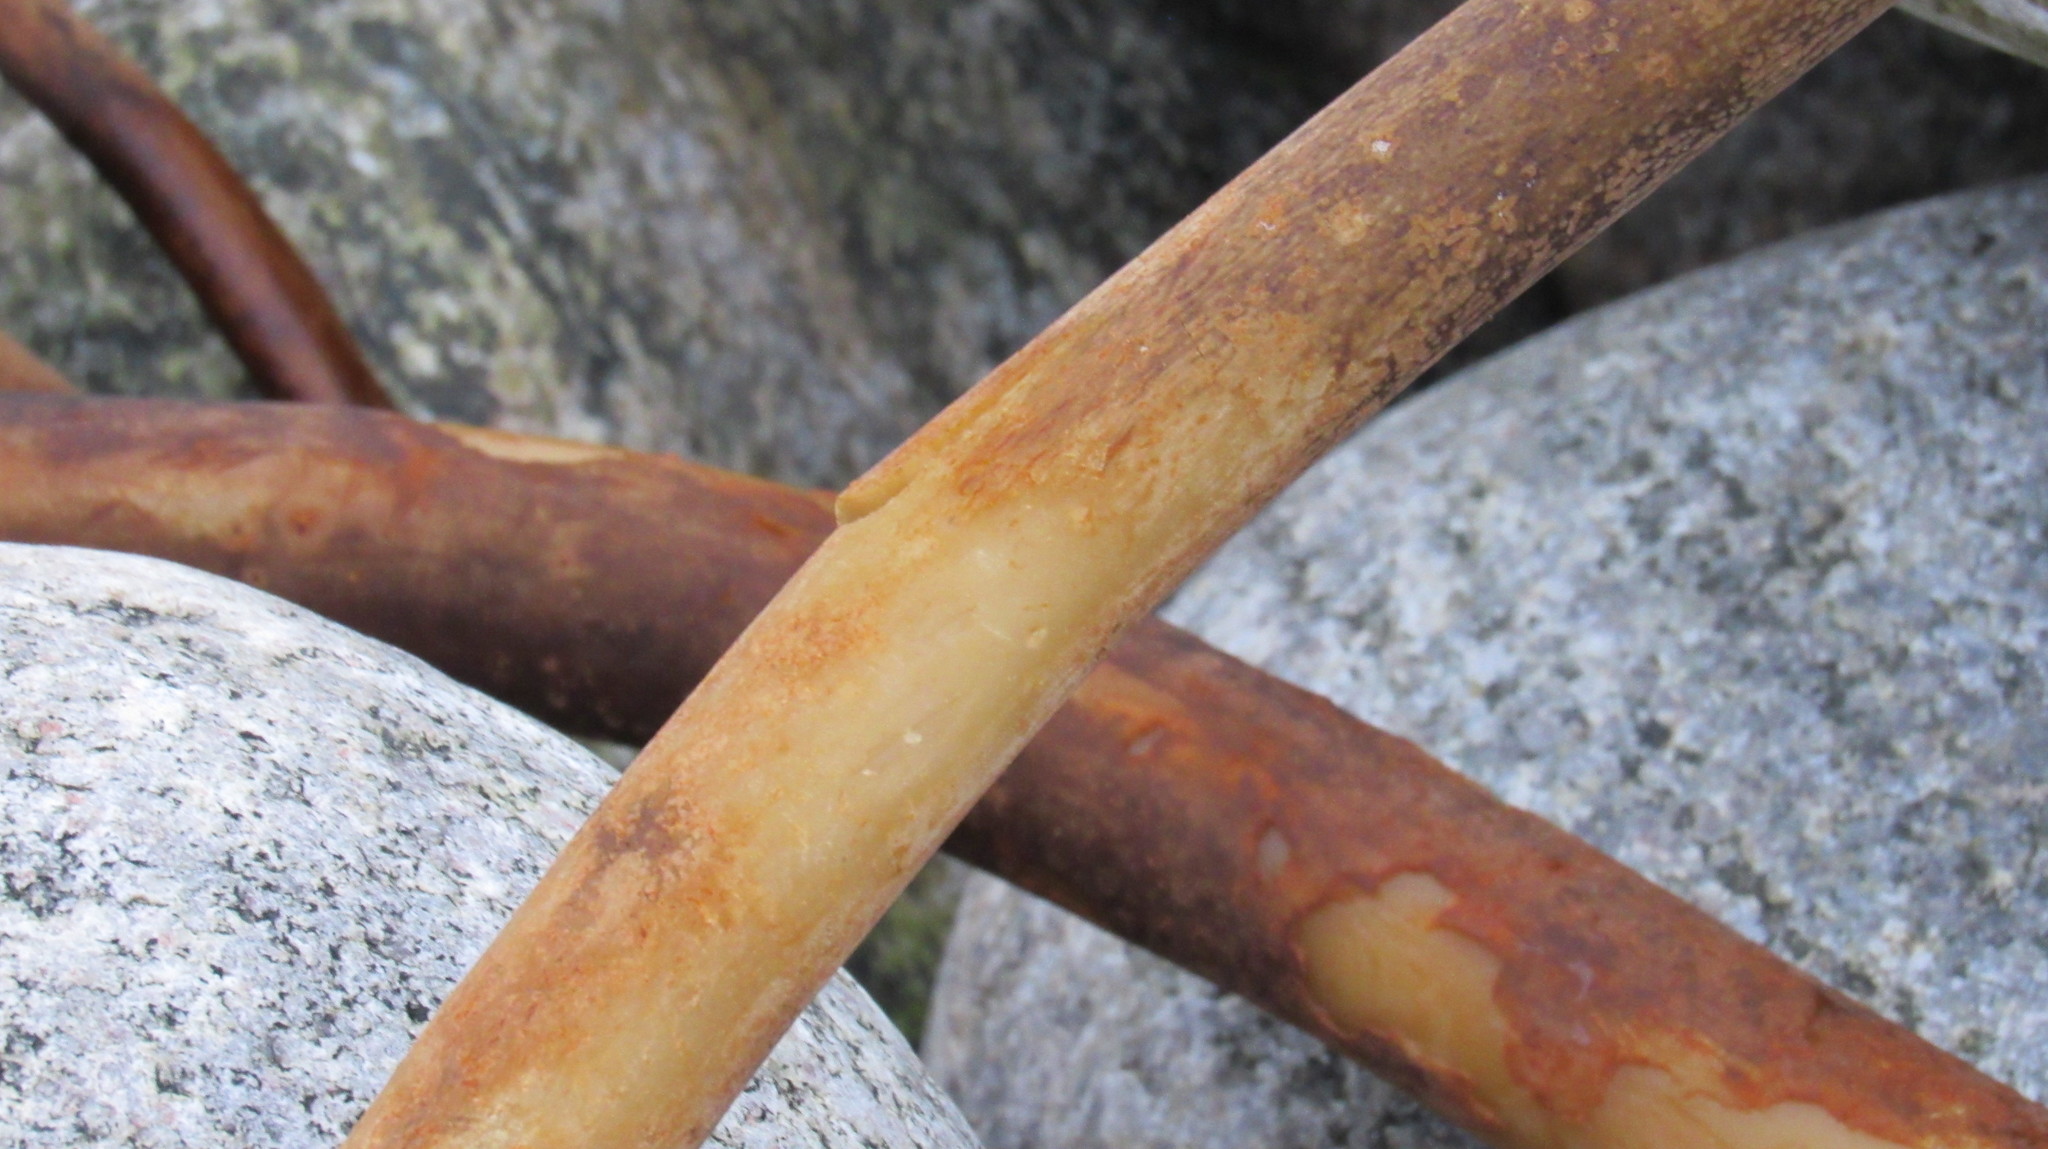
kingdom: Chromista
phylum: Ochrophyta
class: Phaeophyceae
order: Laminariales
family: Laminariaceae
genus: Laminaria
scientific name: Laminaria digitata
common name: Oarweed
